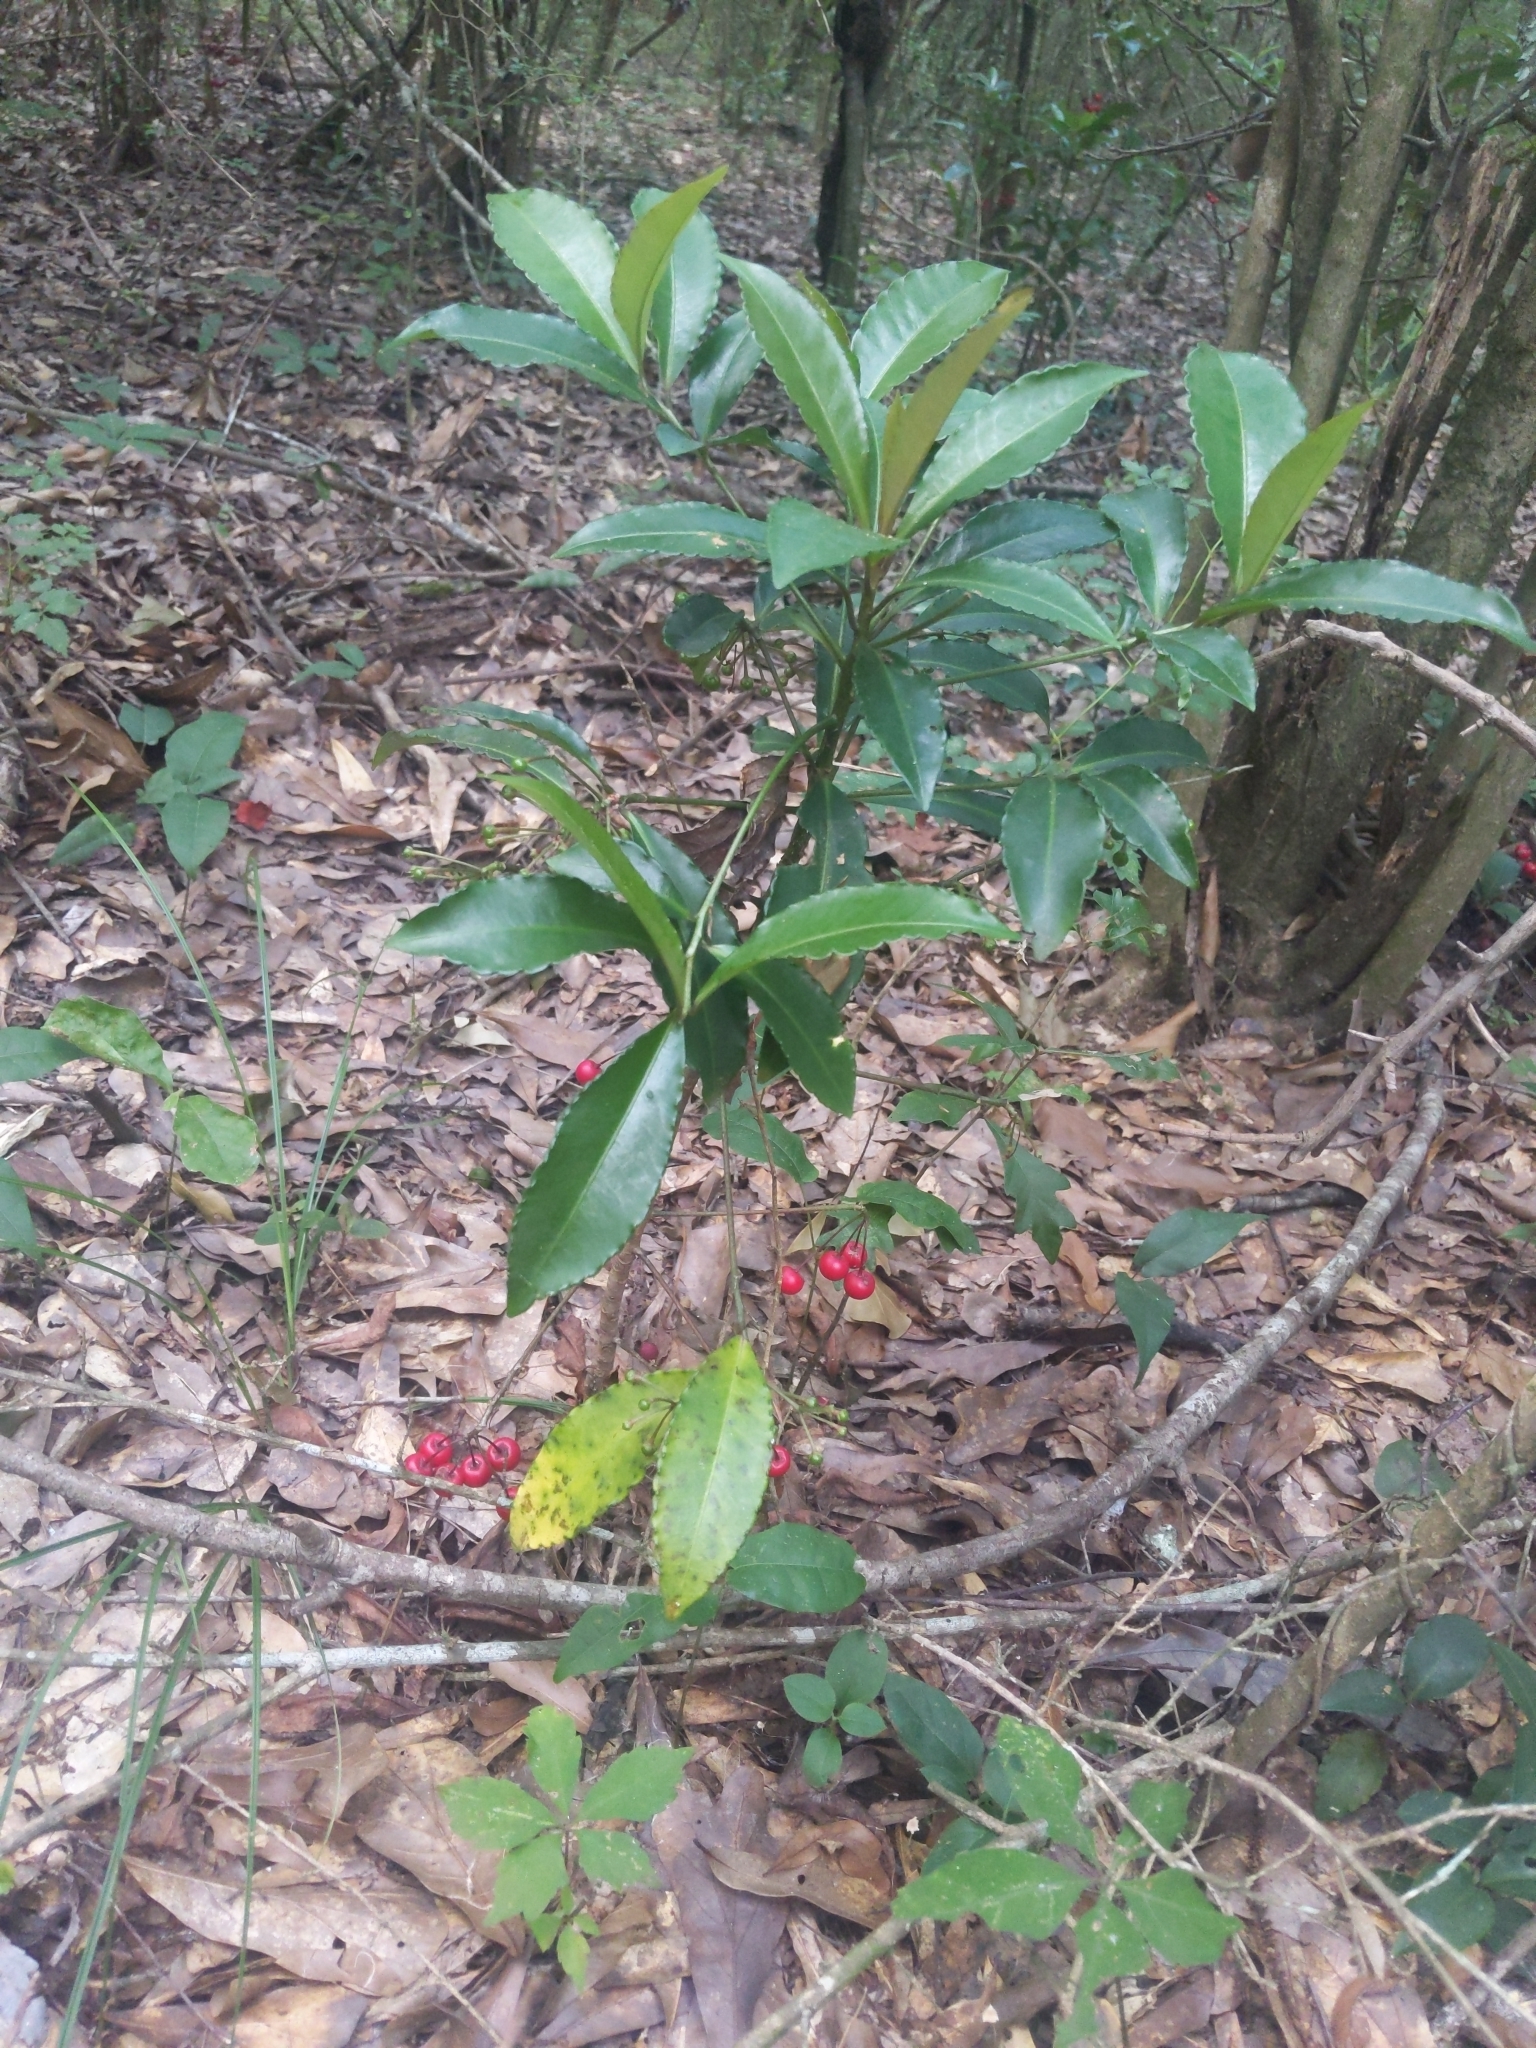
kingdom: Plantae
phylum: Tracheophyta
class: Magnoliopsida
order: Ericales
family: Primulaceae
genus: Ardisia
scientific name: Ardisia crenata
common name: Hen's eyes
